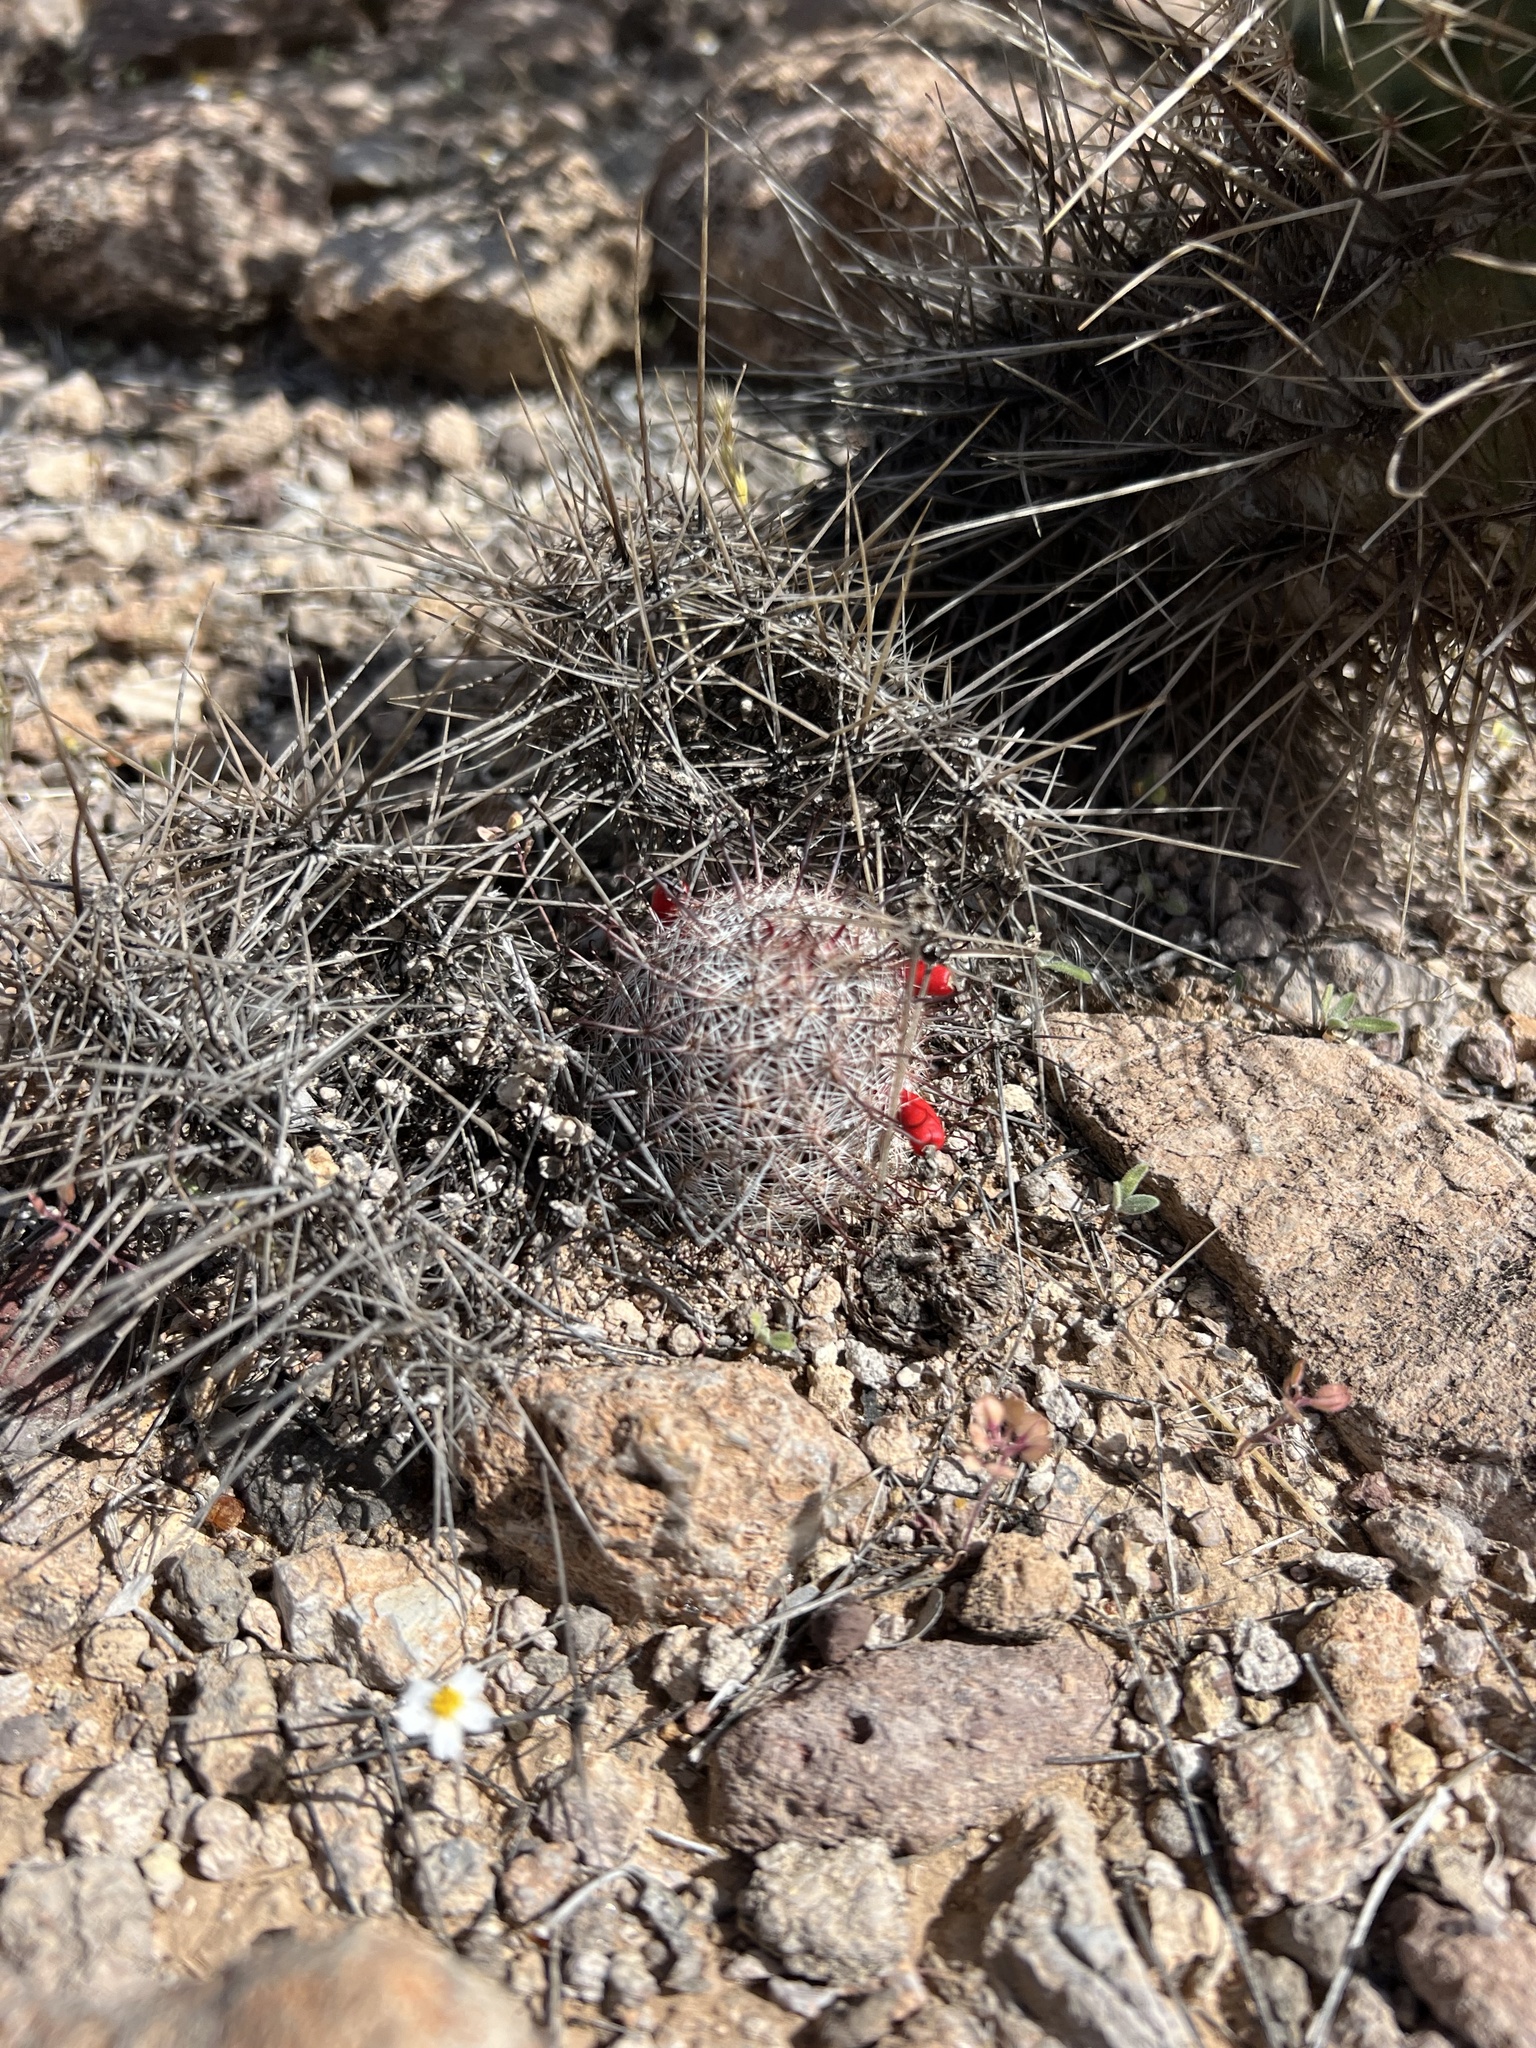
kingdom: Plantae
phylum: Tracheophyta
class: Magnoliopsida
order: Caryophyllales
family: Cactaceae
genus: Cochemiea
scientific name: Cochemiea grahamii
